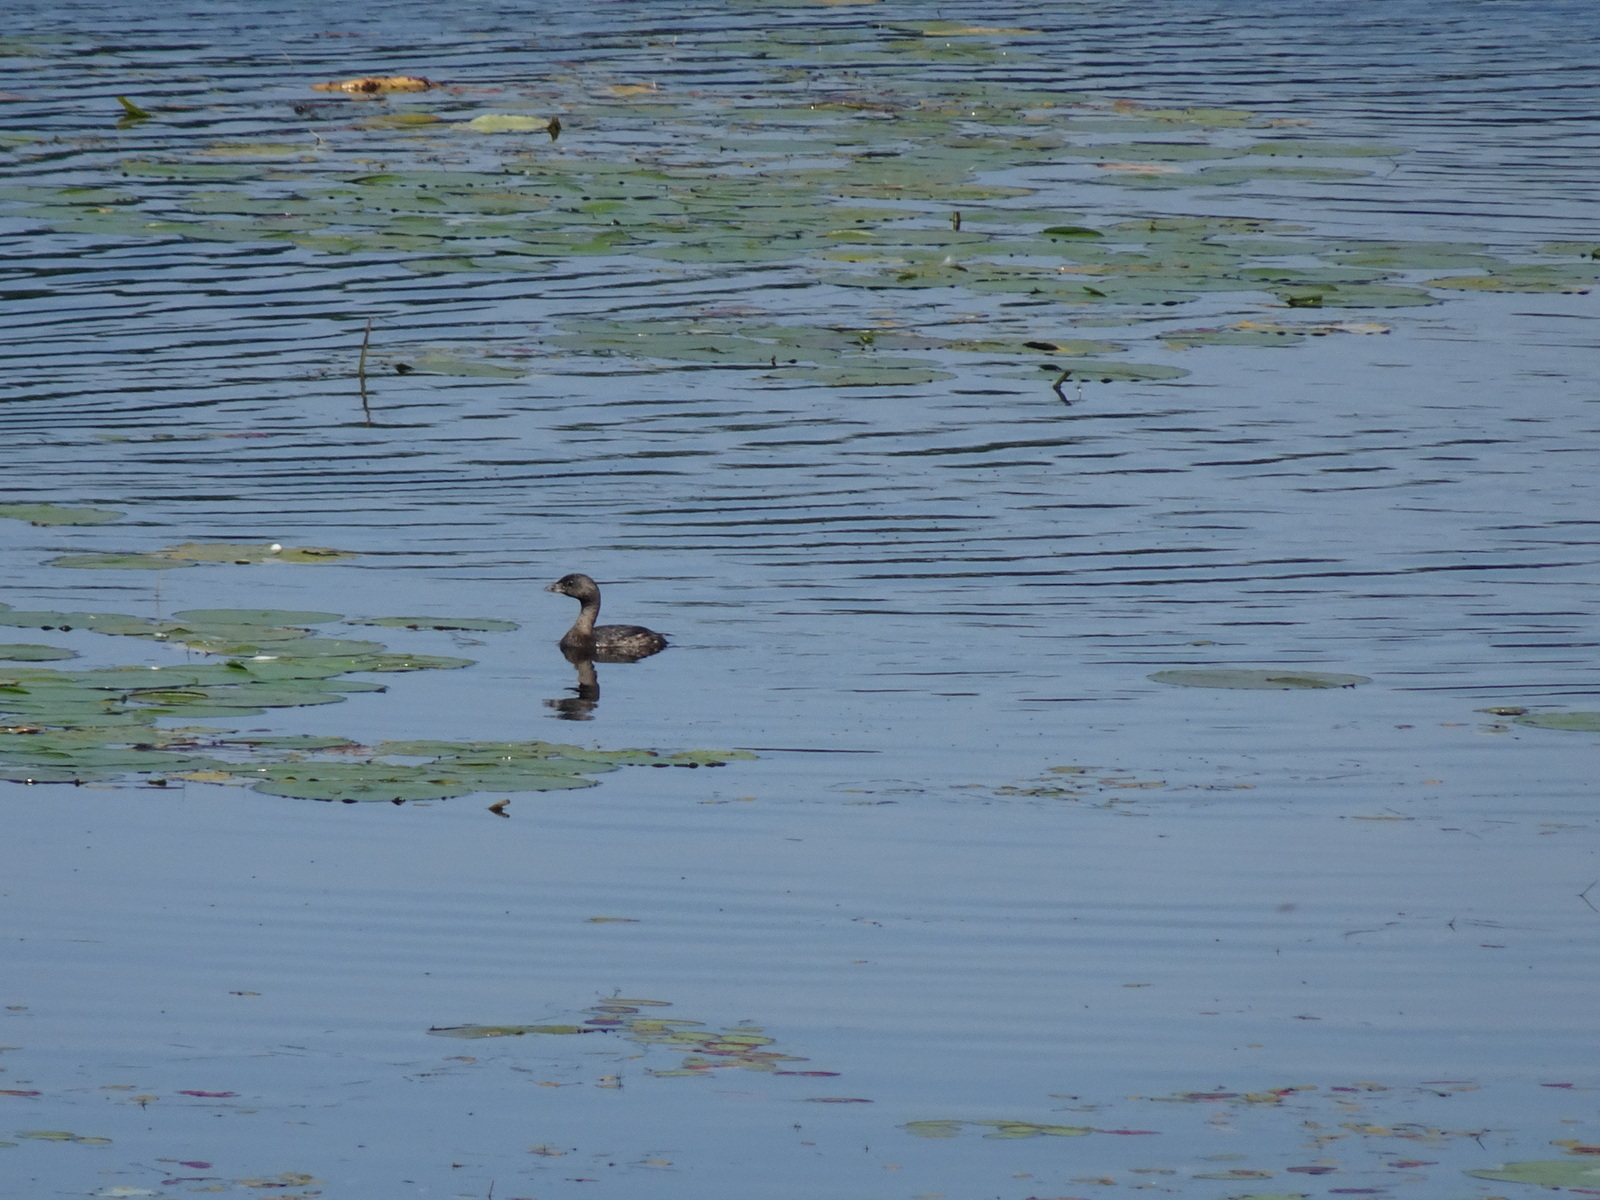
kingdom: Animalia
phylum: Chordata
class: Aves
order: Podicipediformes
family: Podicipedidae
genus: Podilymbus
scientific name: Podilymbus podiceps
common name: Pied-billed grebe
